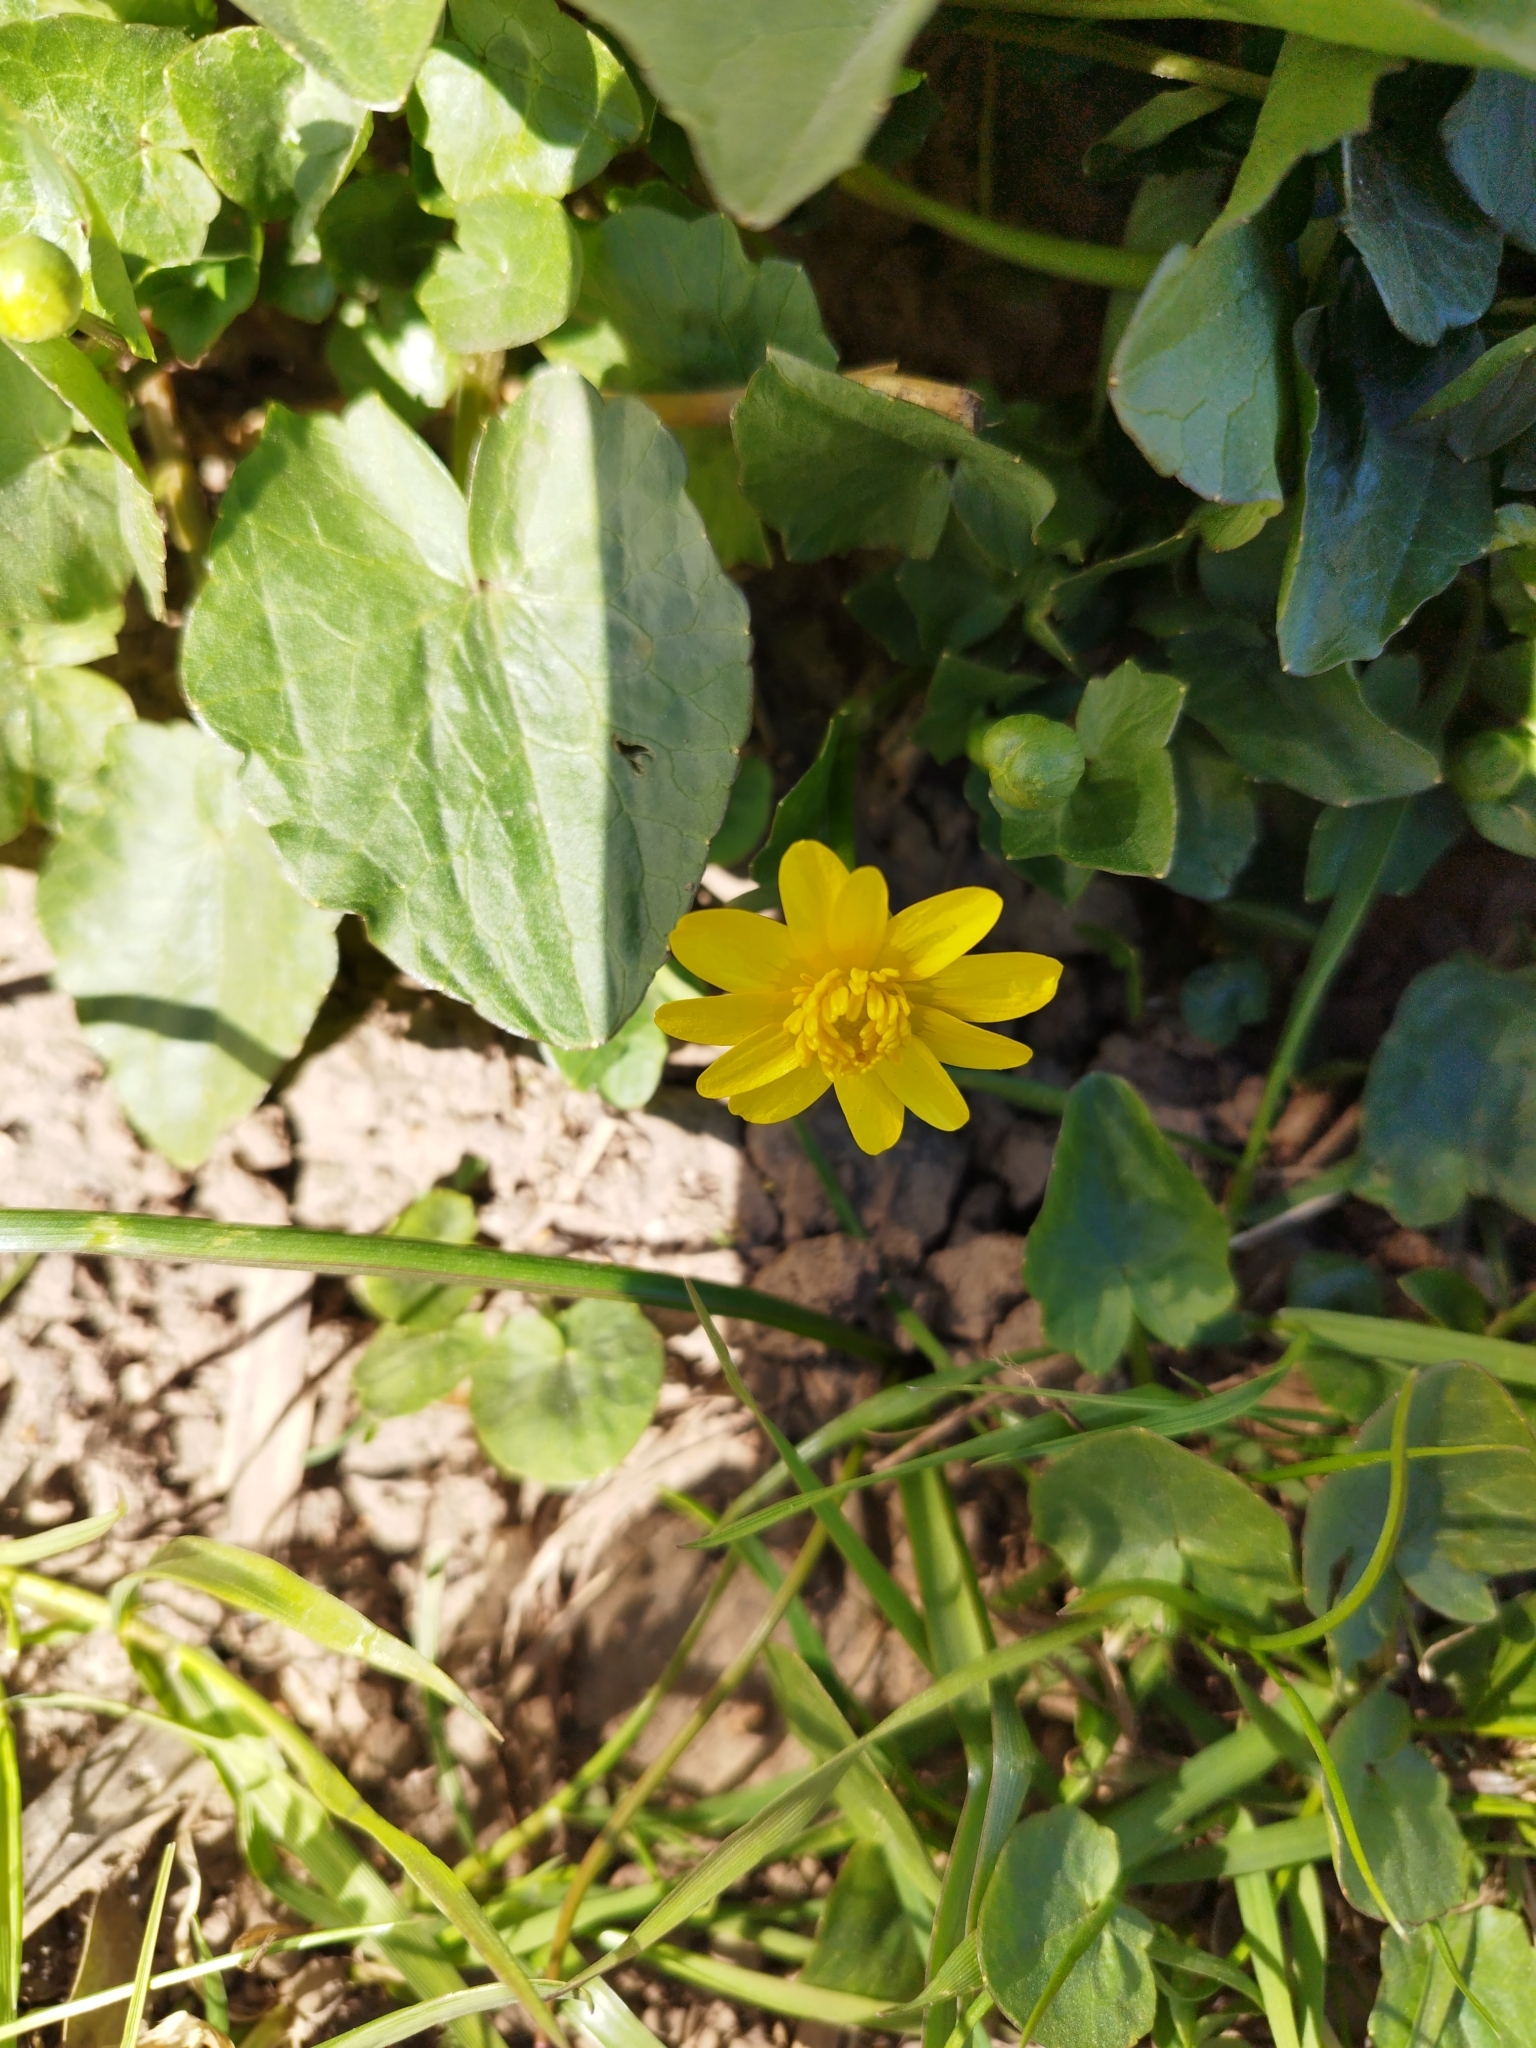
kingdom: Plantae
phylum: Tracheophyta
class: Magnoliopsida
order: Ranunculales
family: Ranunculaceae
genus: Ficaria
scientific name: Ficaria verna
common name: Lesser celandine
